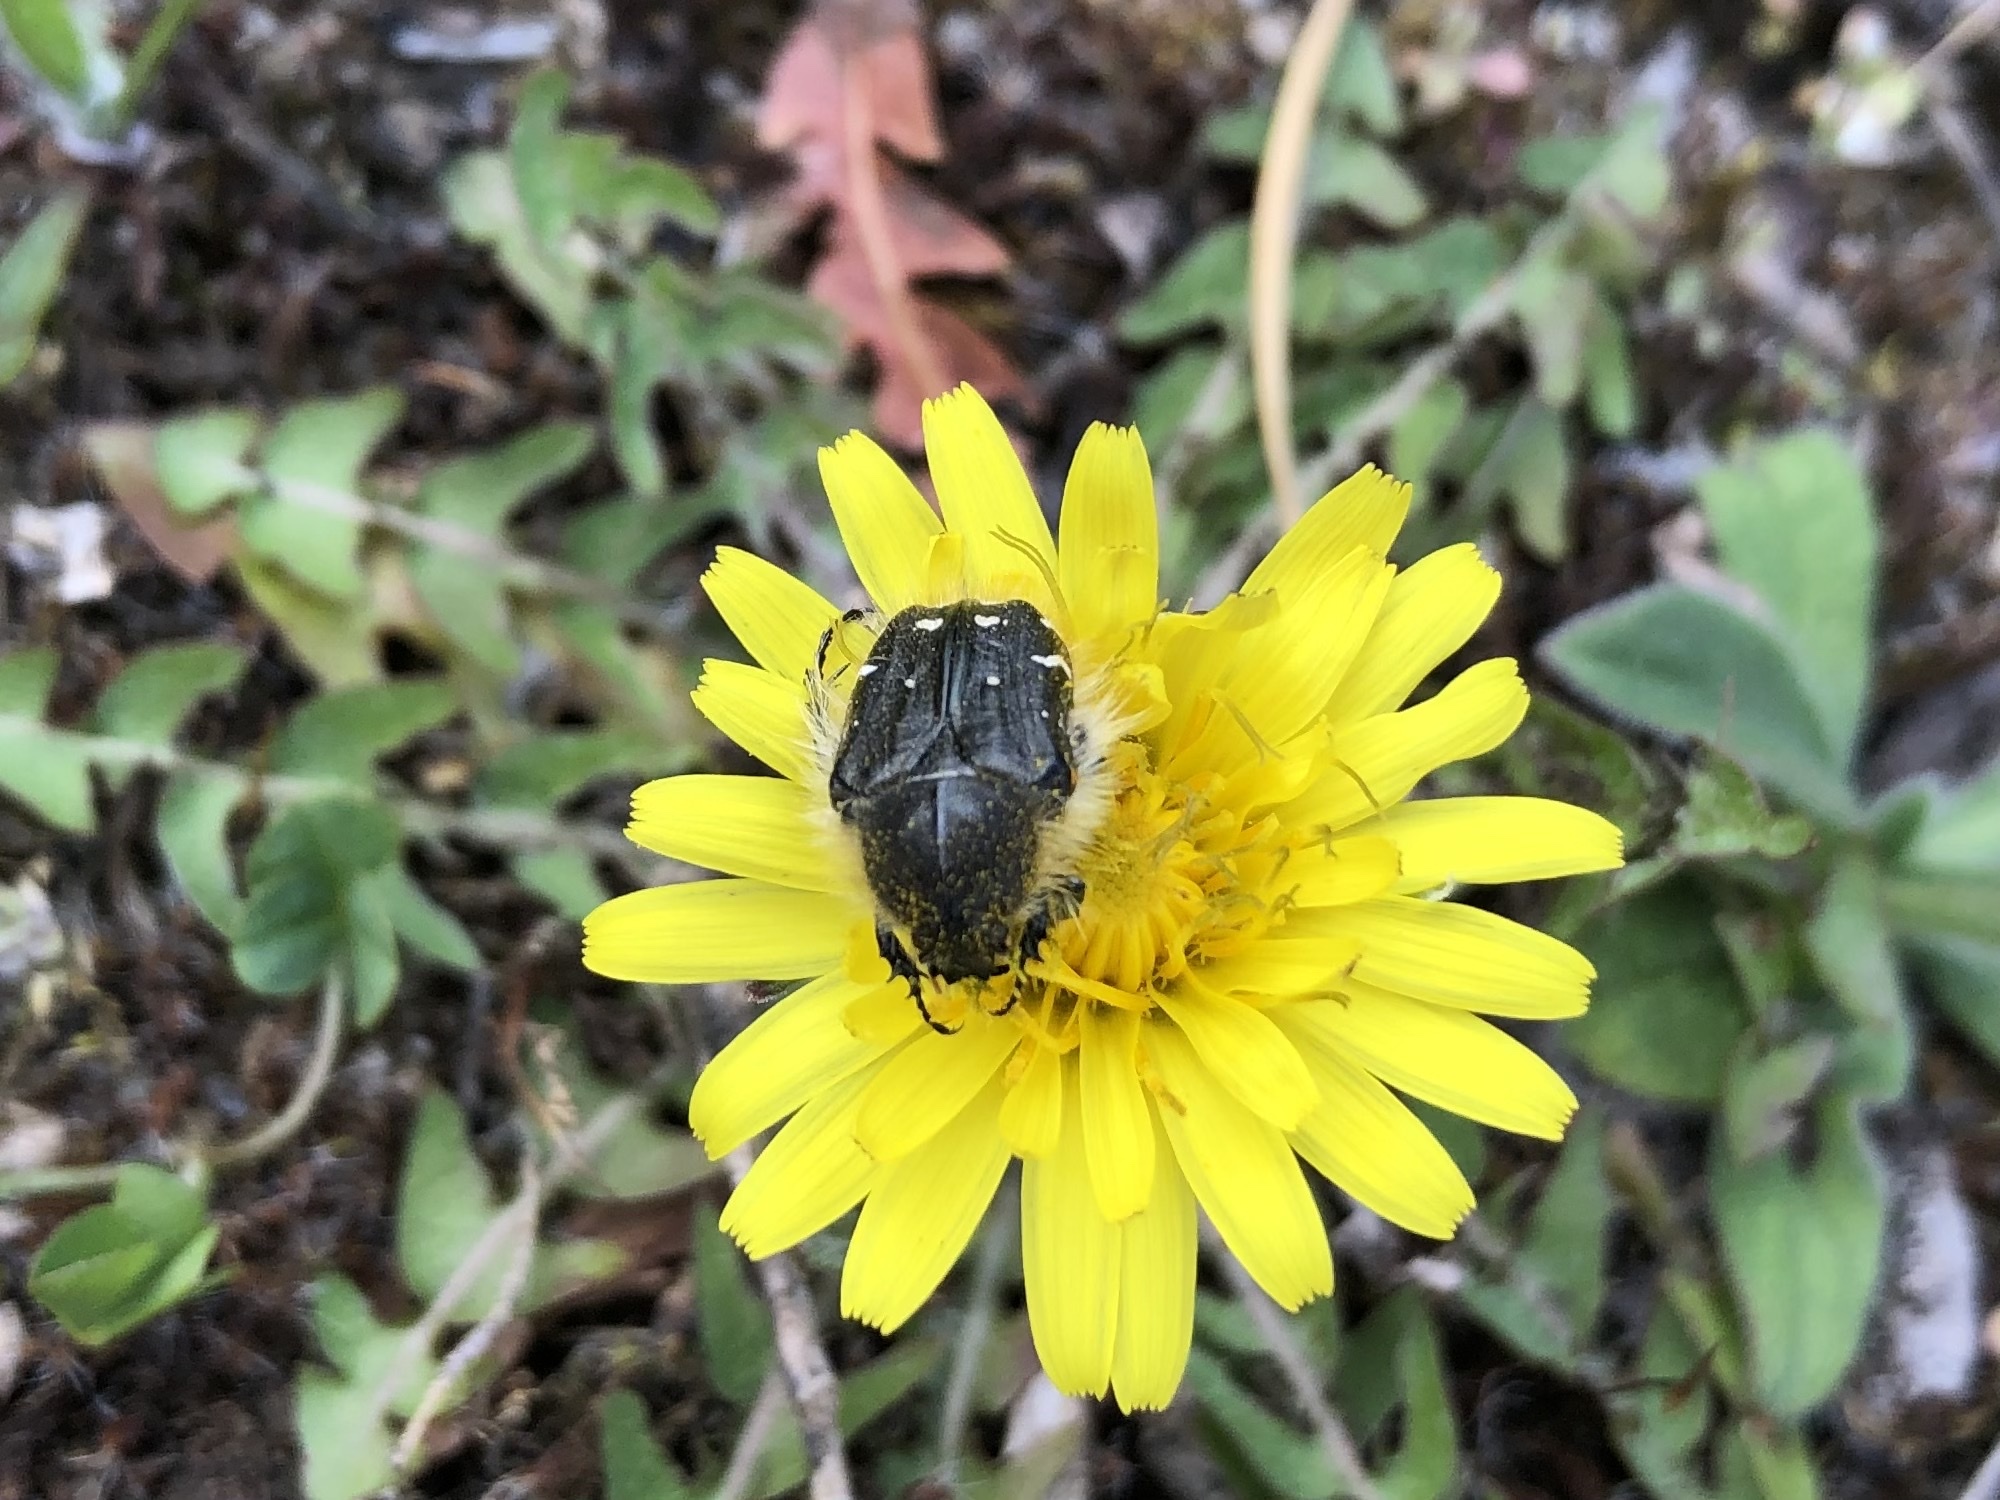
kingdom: Animalia
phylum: Arthropoda
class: Insecta
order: Coleoptera
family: Scarabaeidae
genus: Tropinota
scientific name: Tropinota hirta
